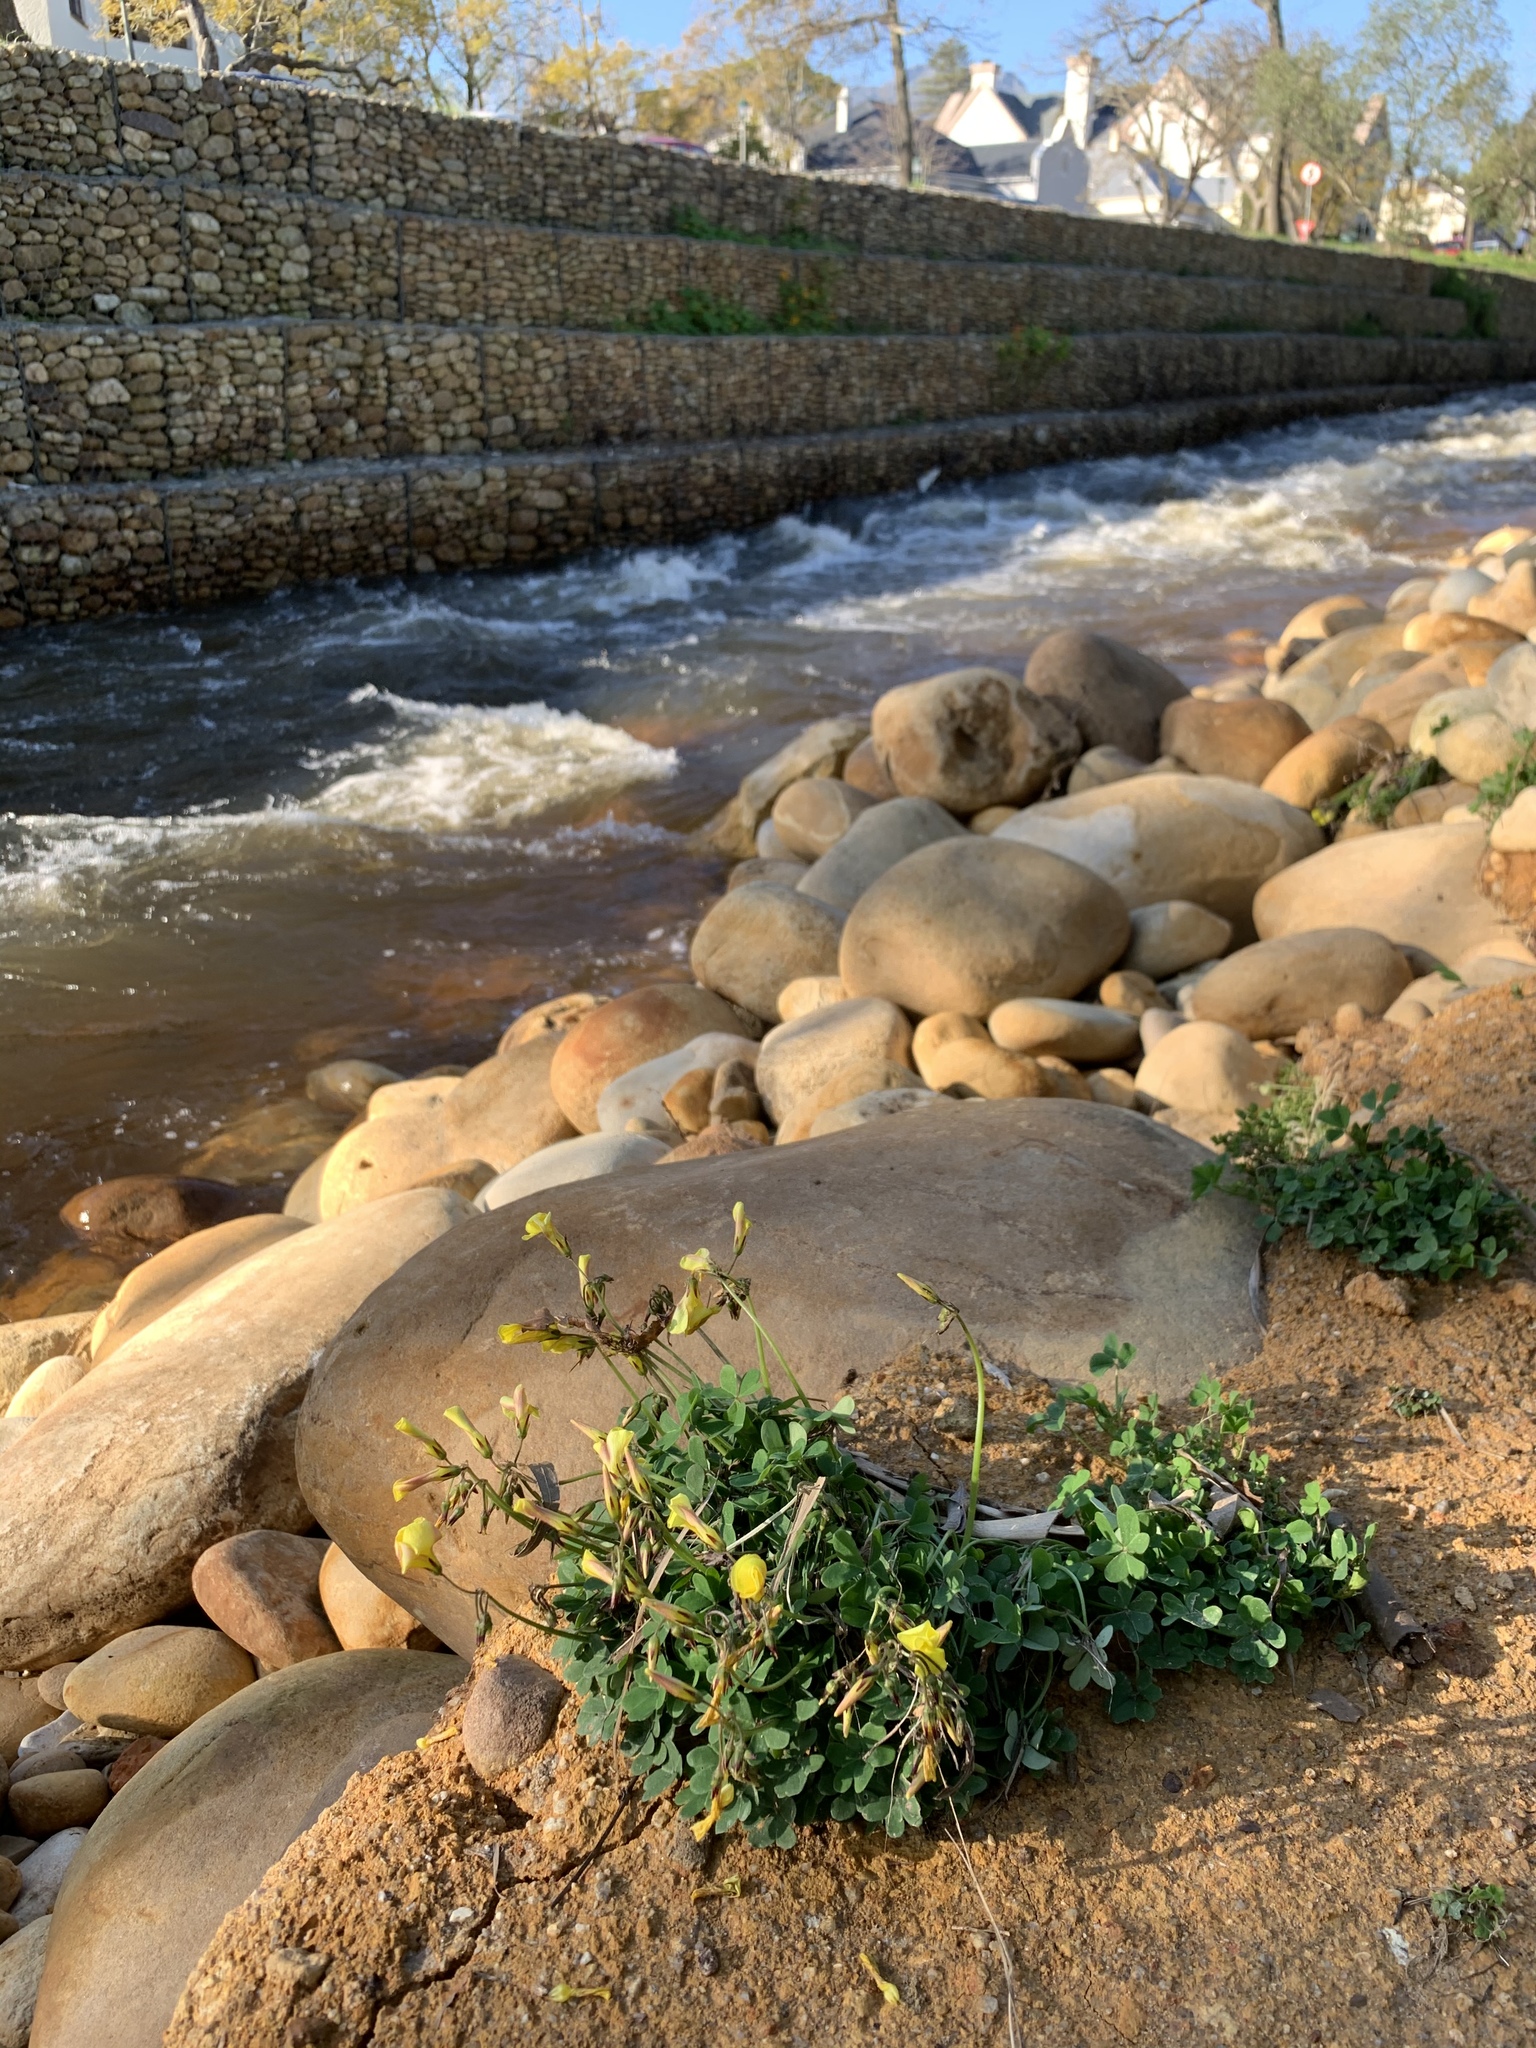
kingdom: Plantae
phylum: Tracheophyta
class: Magnoliopsida
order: Oxalidales
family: Oxalidaceae
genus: Oxalis
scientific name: Oxalis pes-caprae
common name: Bermuda-buttercup
